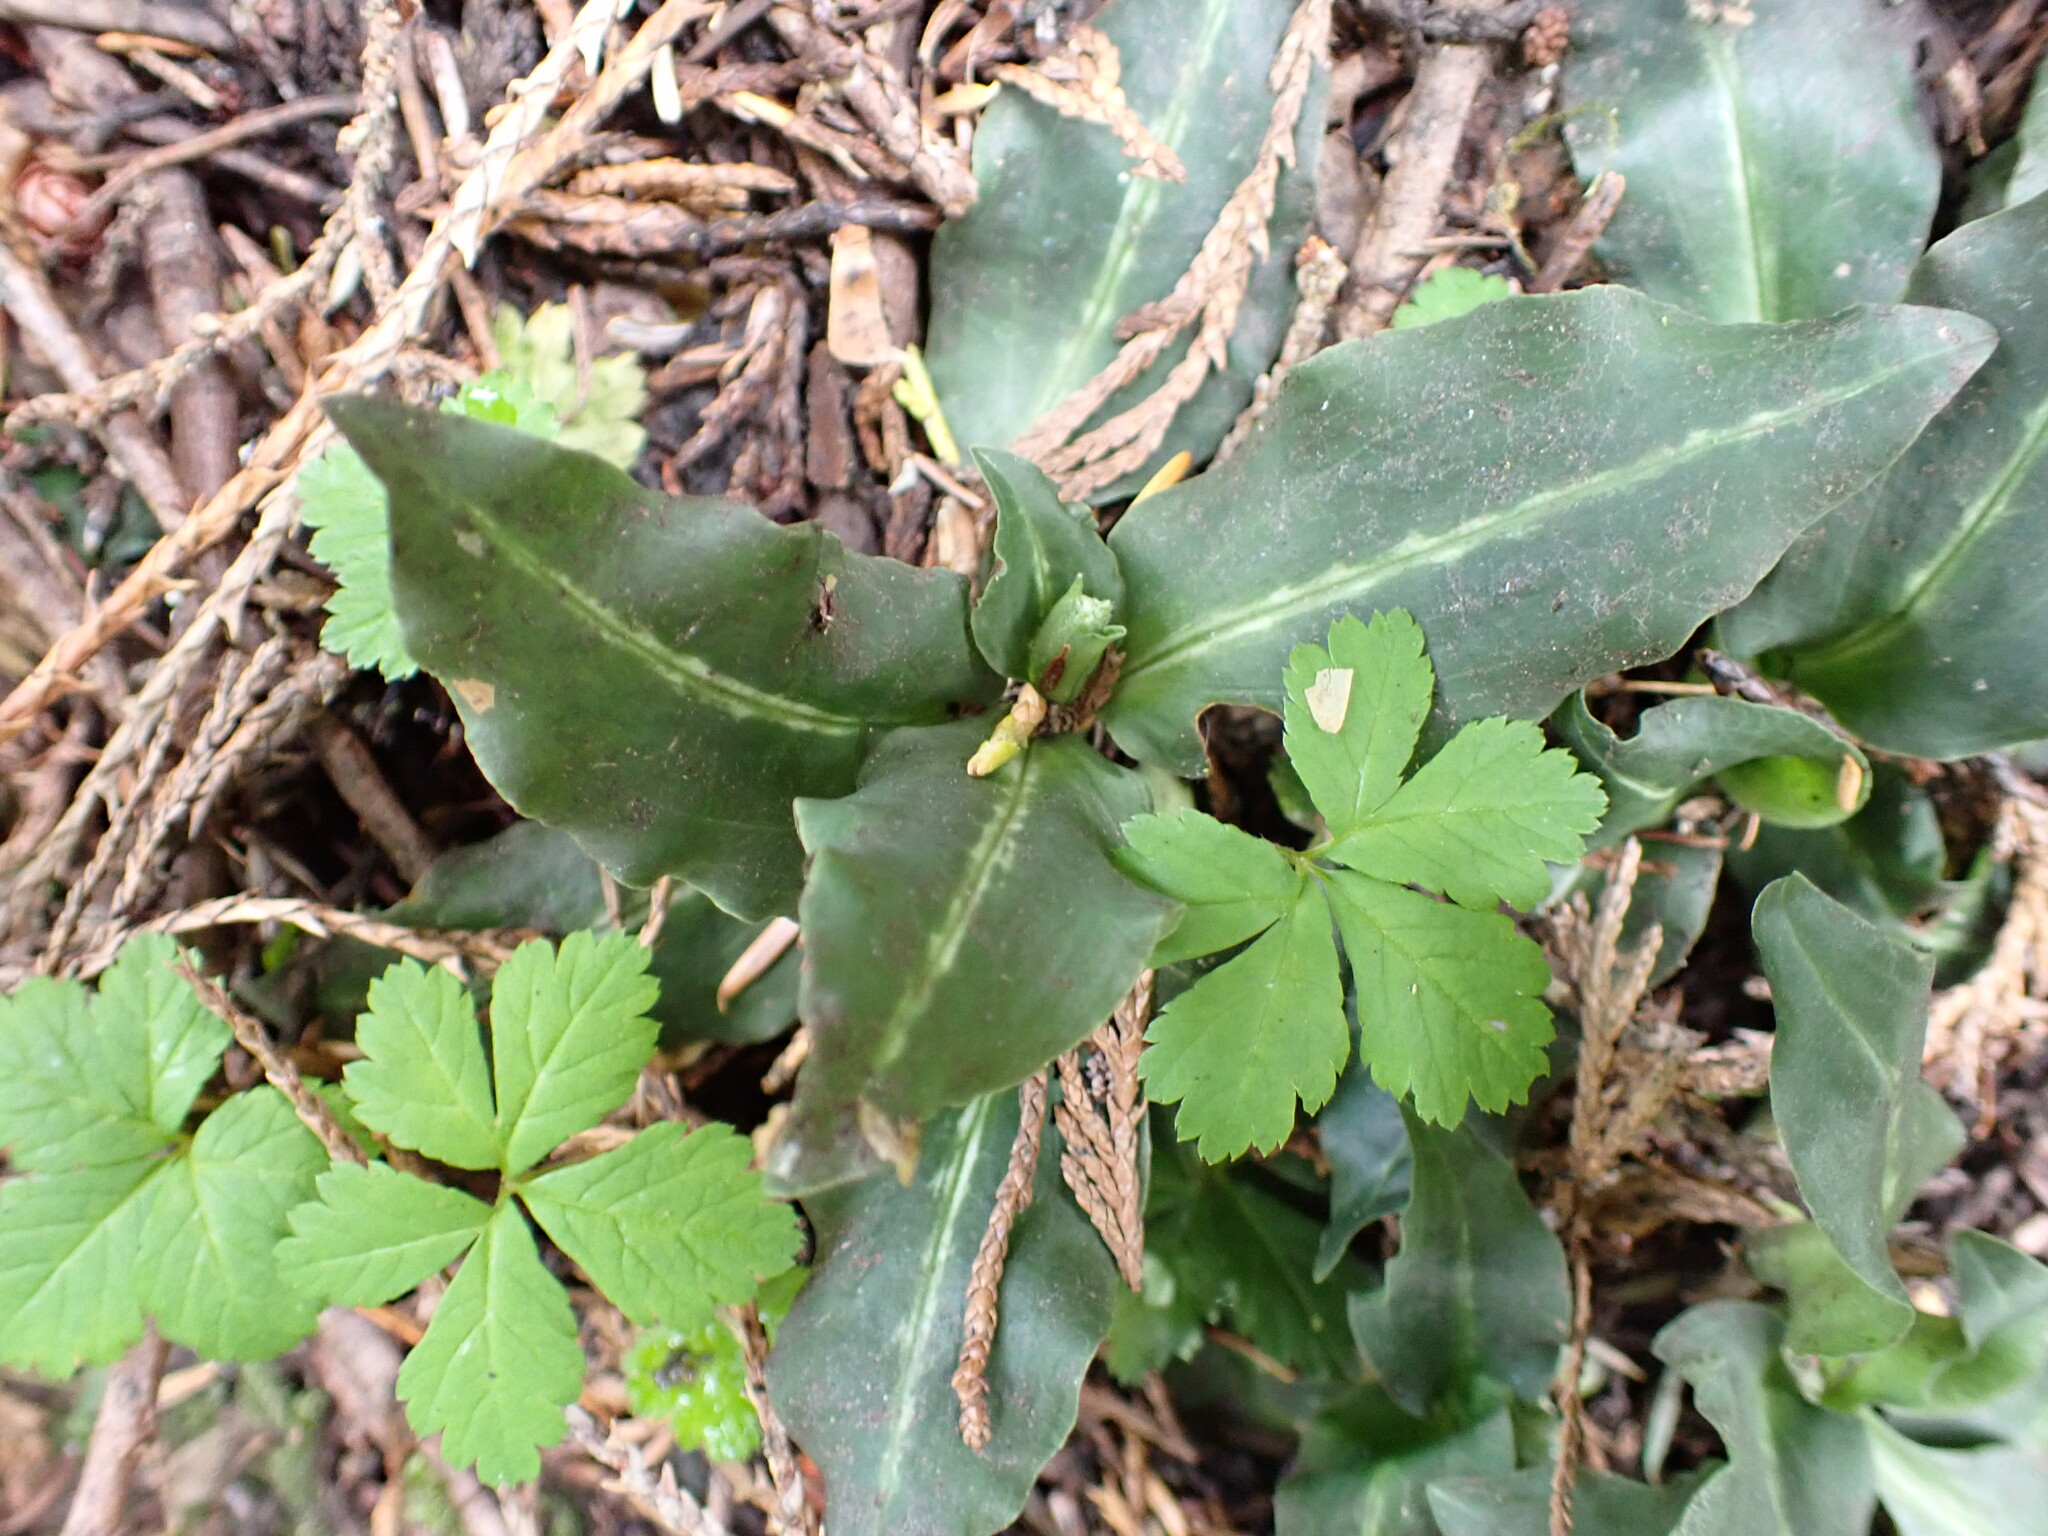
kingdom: Plantae
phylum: Tracheophyta
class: Liliopsida
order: Asparagales
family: Orchidaceae
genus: Goodyera
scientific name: Goodyera oblongifolia
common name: Giant rattlesnake-plantain
